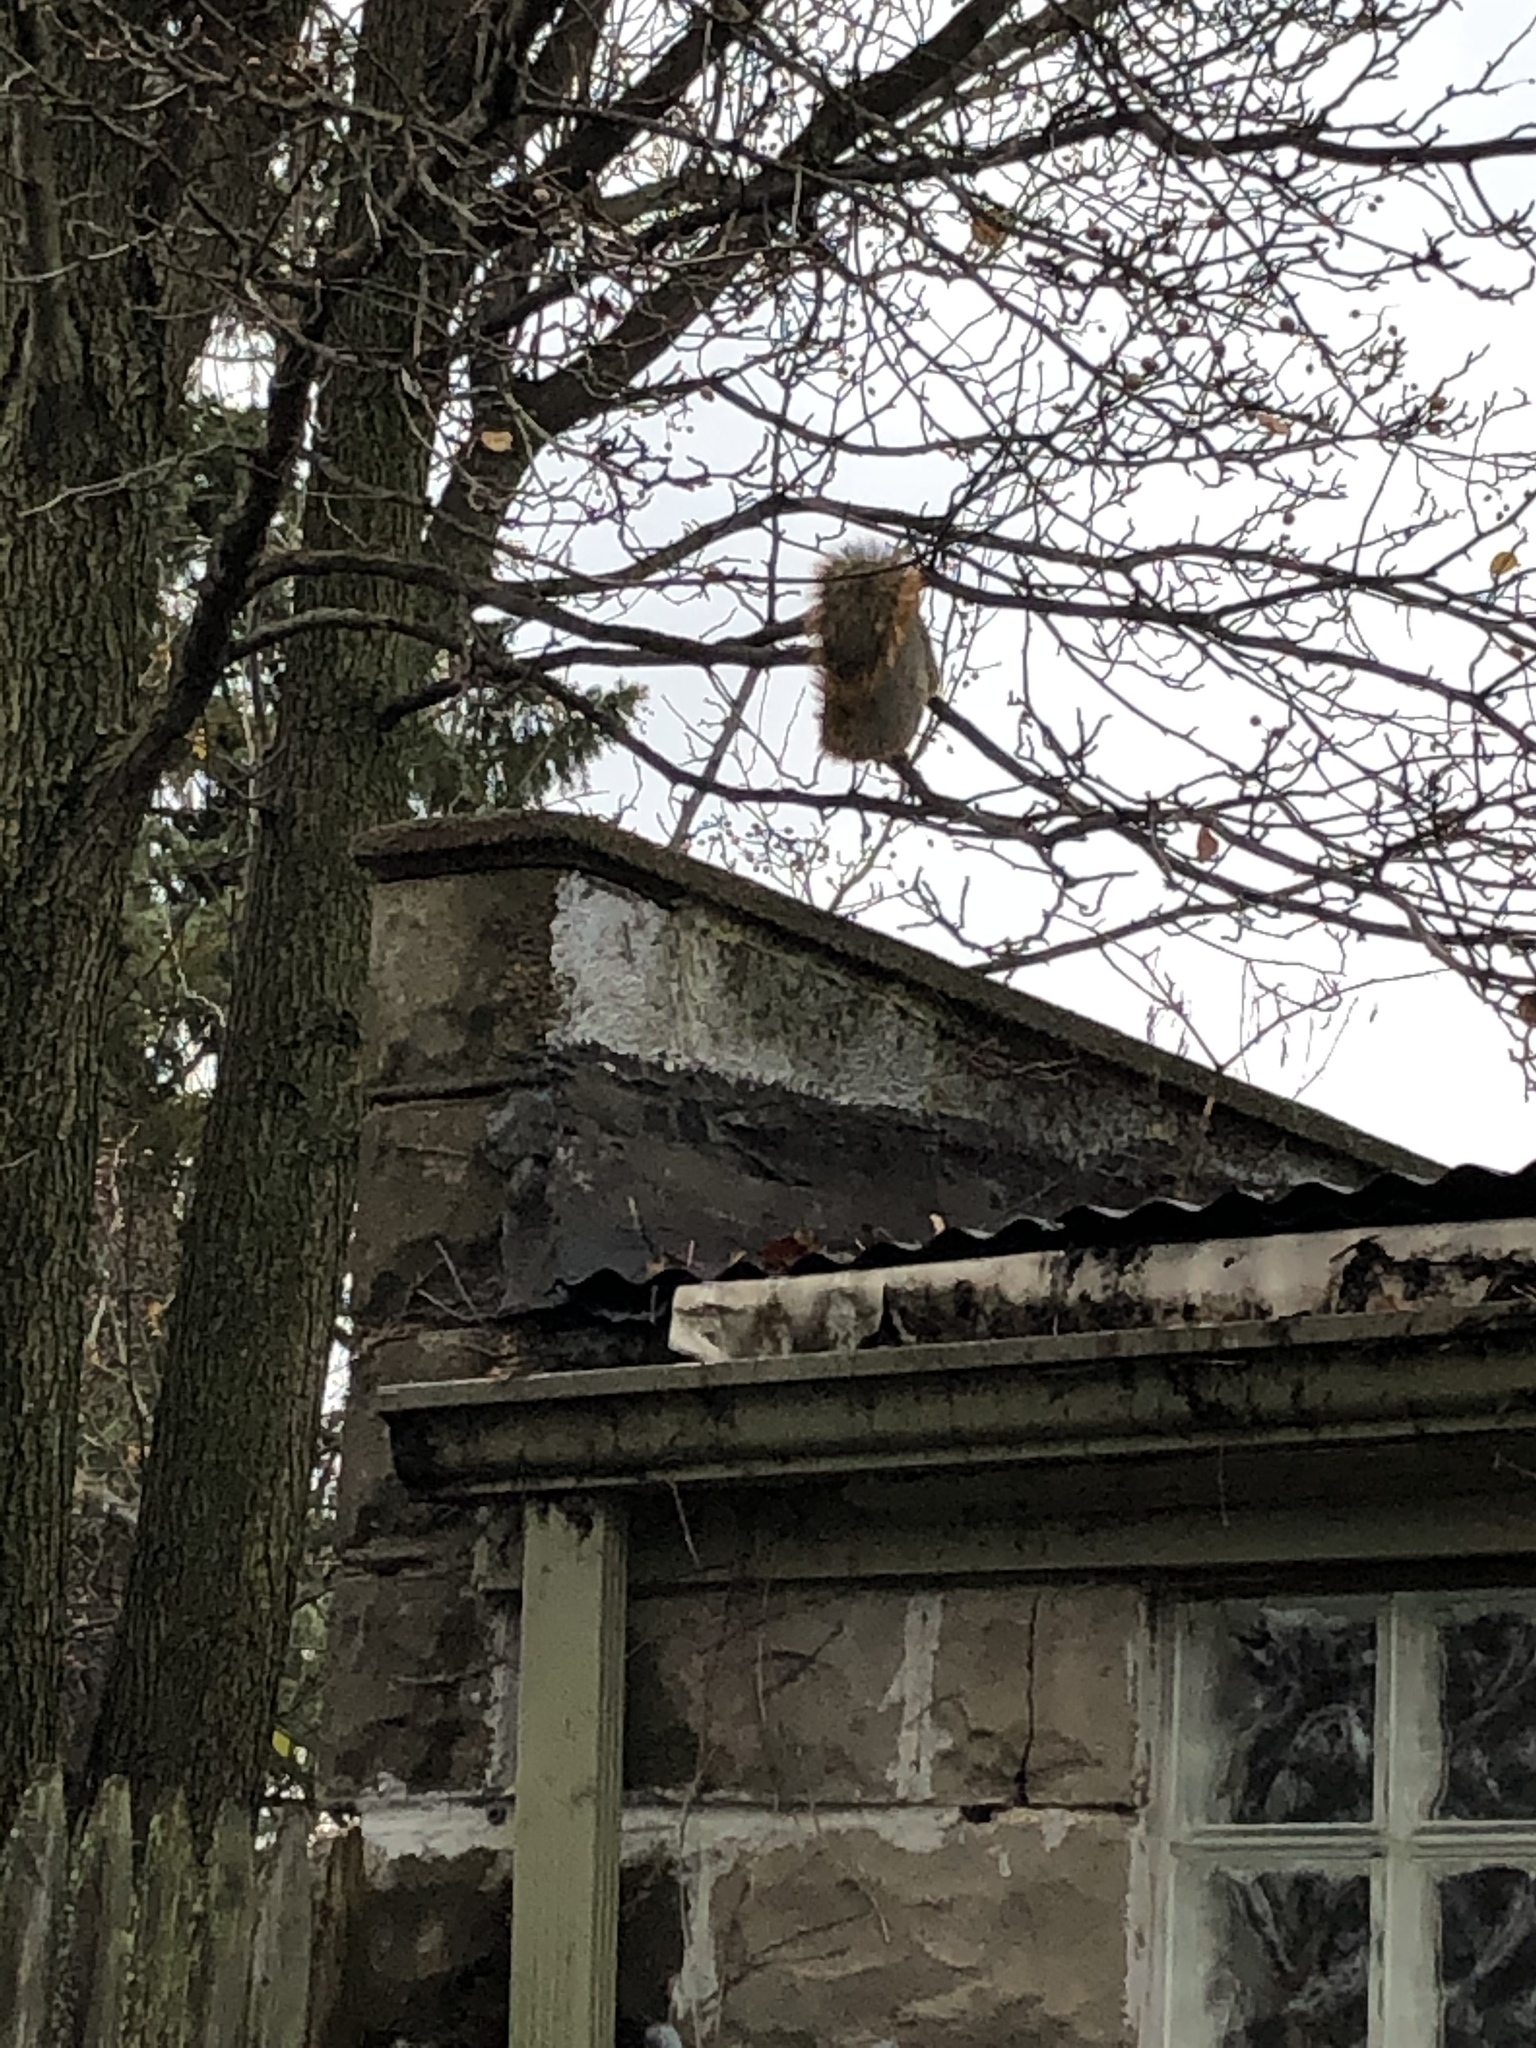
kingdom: Animalia
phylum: Chordata
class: Mammalia
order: Rodentia
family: Sciuridae
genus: Sciurus
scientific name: Sciurus niger
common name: Fox squirrel
